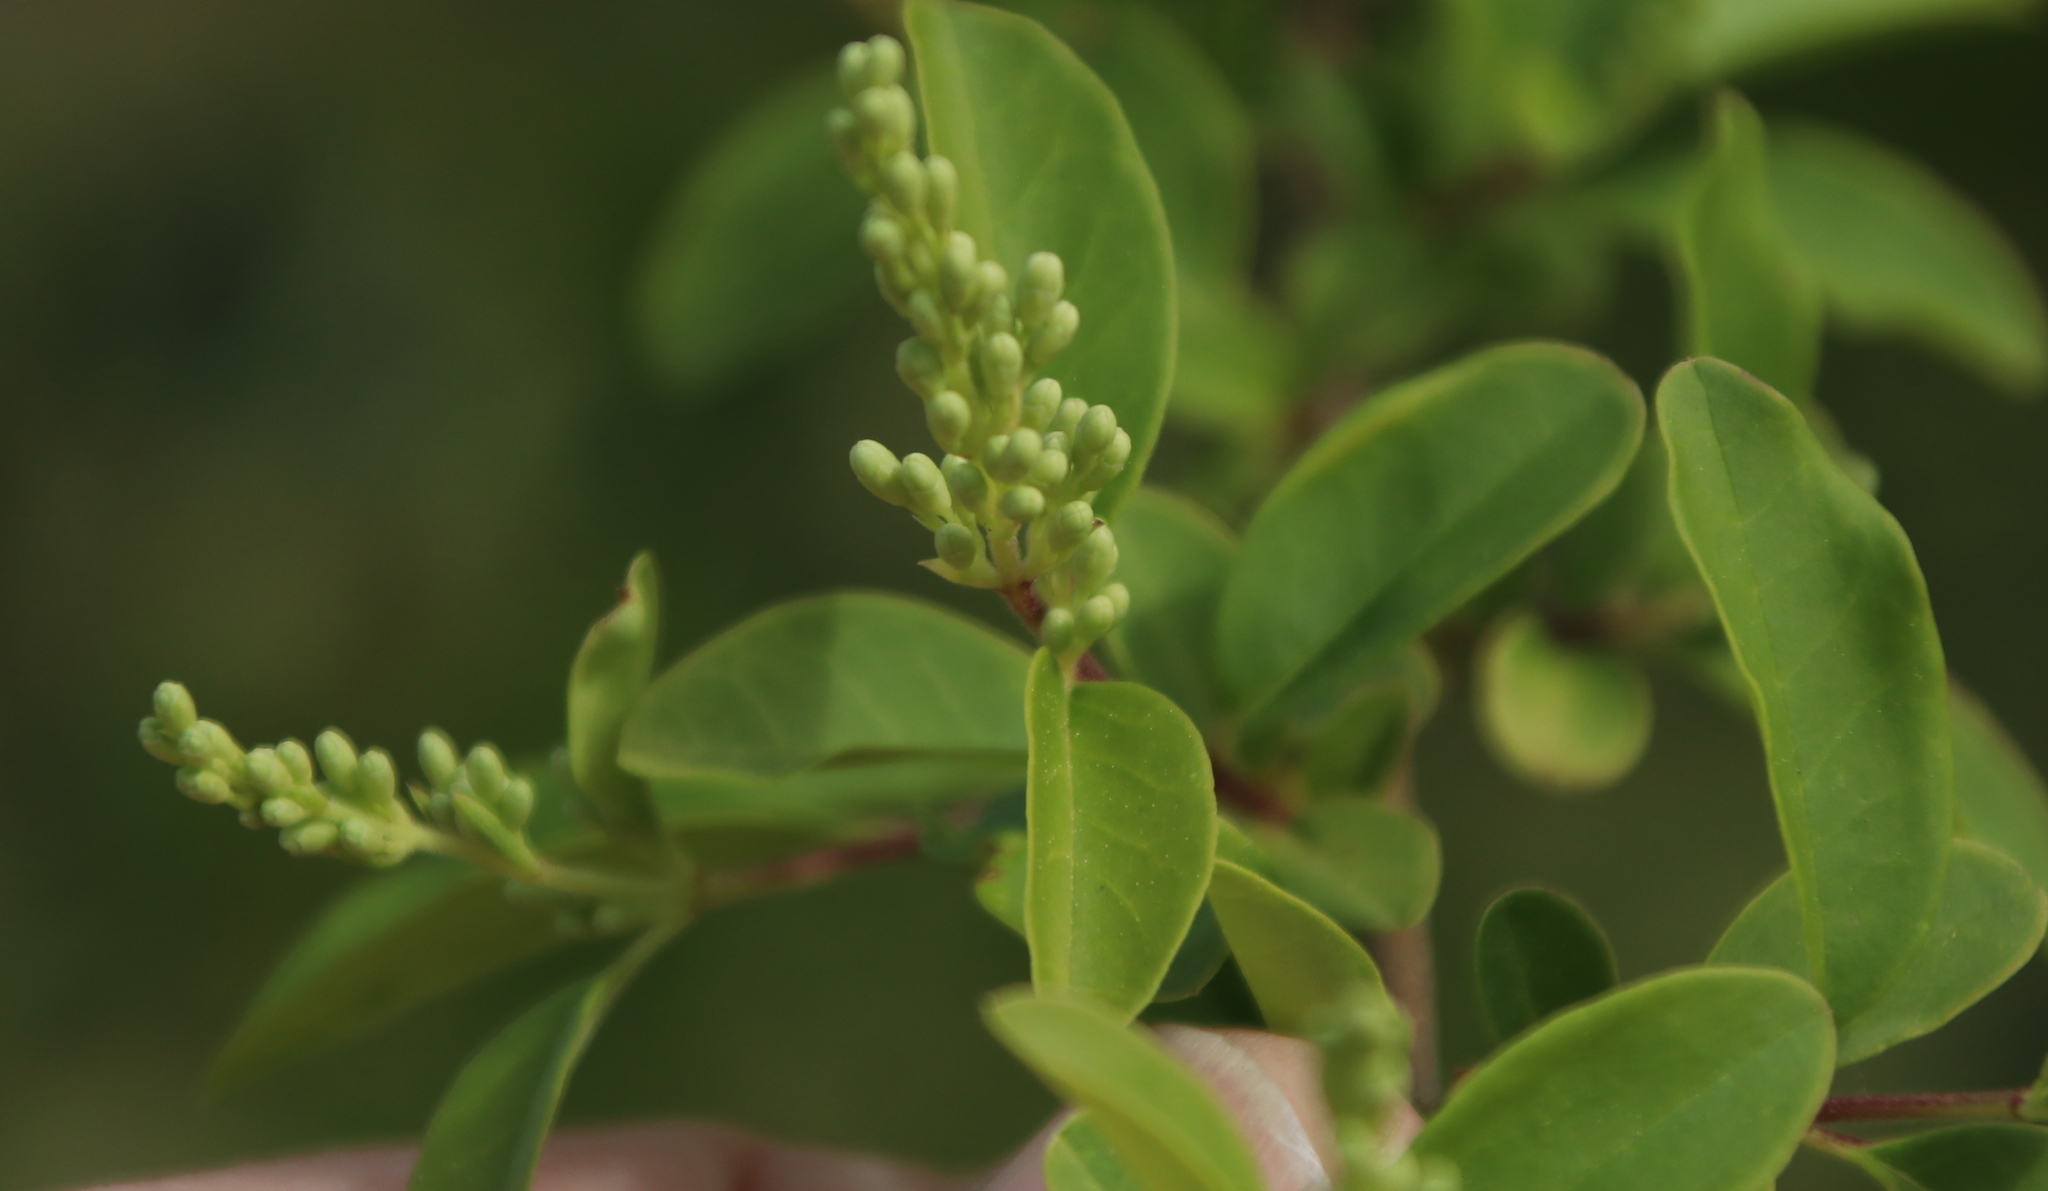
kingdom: Plantae
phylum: Tracheophyta
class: Magnoliopsida
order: Lamiales
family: Oleaceae
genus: Ligustrum
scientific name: Ligustrum sinense
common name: Chinese privet
